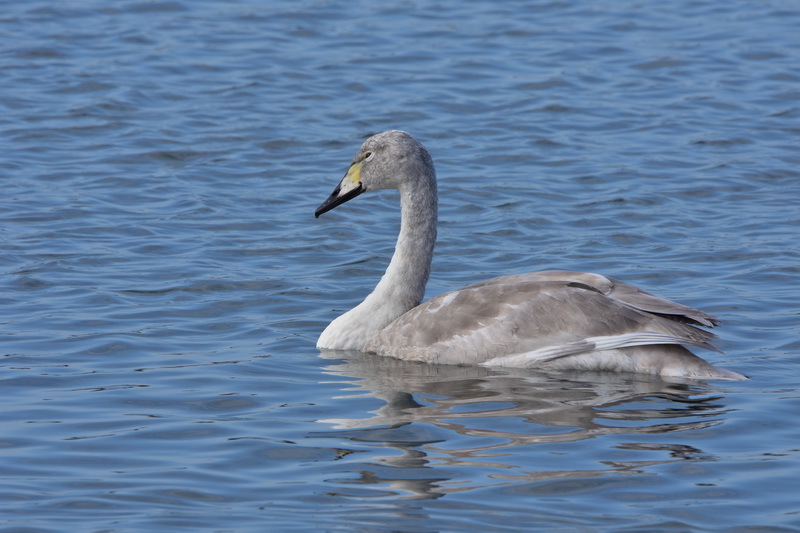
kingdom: Animalia
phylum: Chordata
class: Aves
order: Anseriformes
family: Anatidae
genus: Cygnus
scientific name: Cygnus cygnus
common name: Whooper swan
